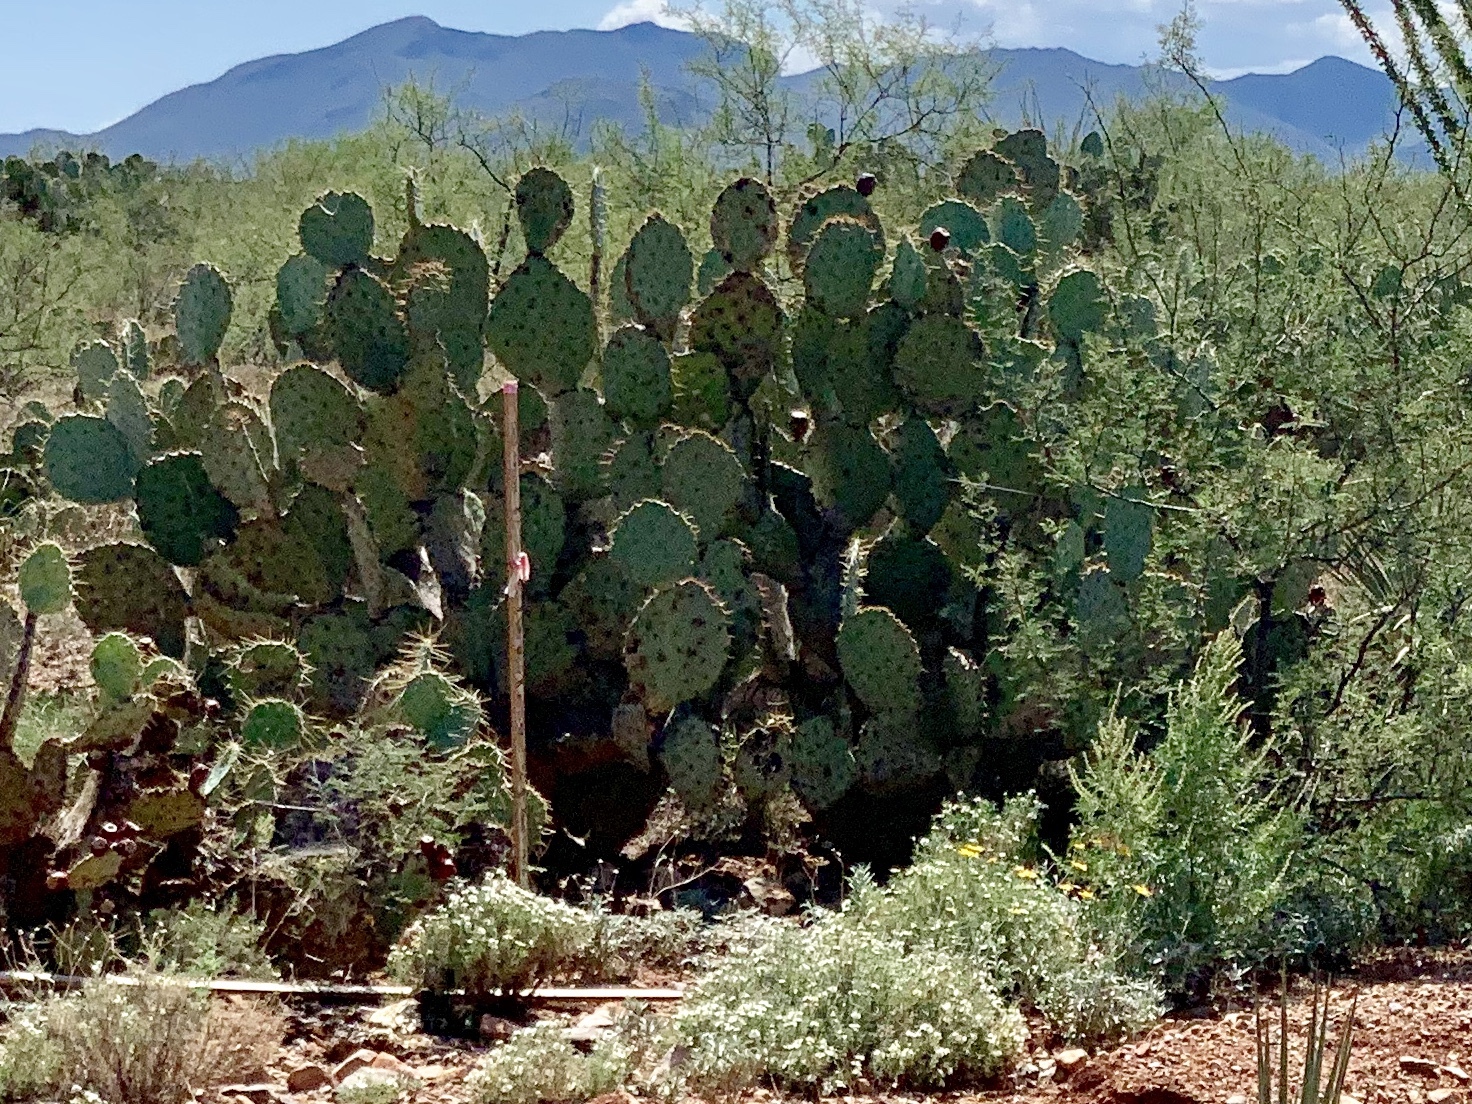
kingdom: Plantae
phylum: Tracheophyta
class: Magnoliopsida
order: Caryophyllales
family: Cactaceae
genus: Opuntia
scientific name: Opuntia engelmannii
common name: Cactus-apple
